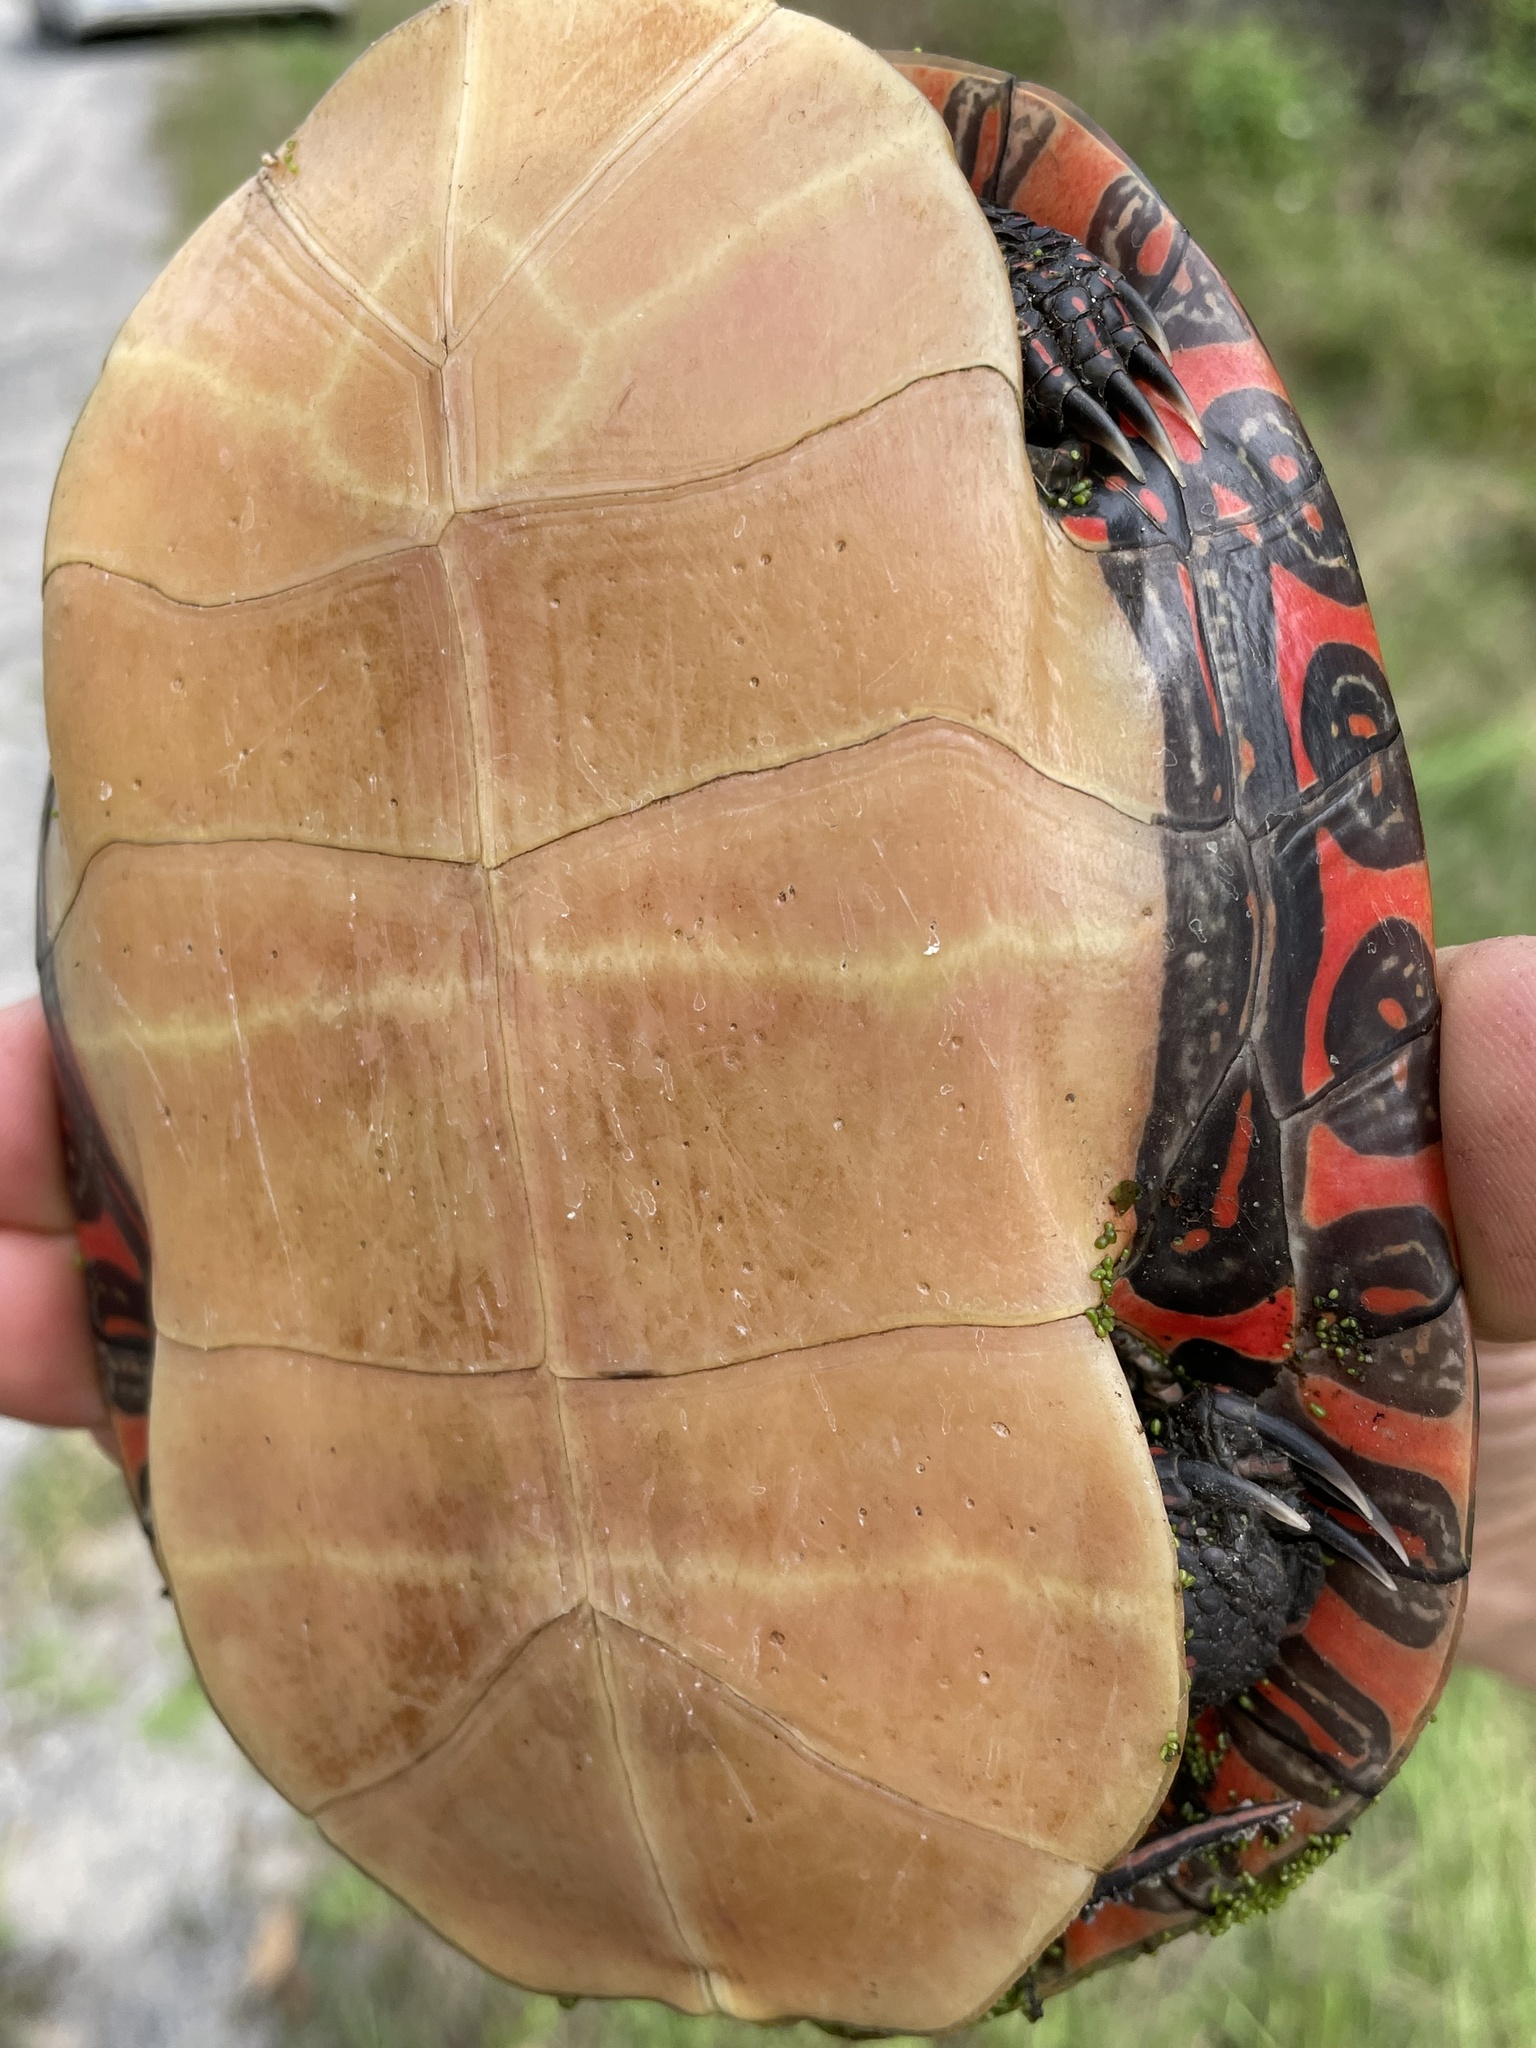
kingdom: Animalia
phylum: Chordata
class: Testudines
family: Emydidae
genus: Chrysemys
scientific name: Chrysemys picta
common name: Painted turtle
